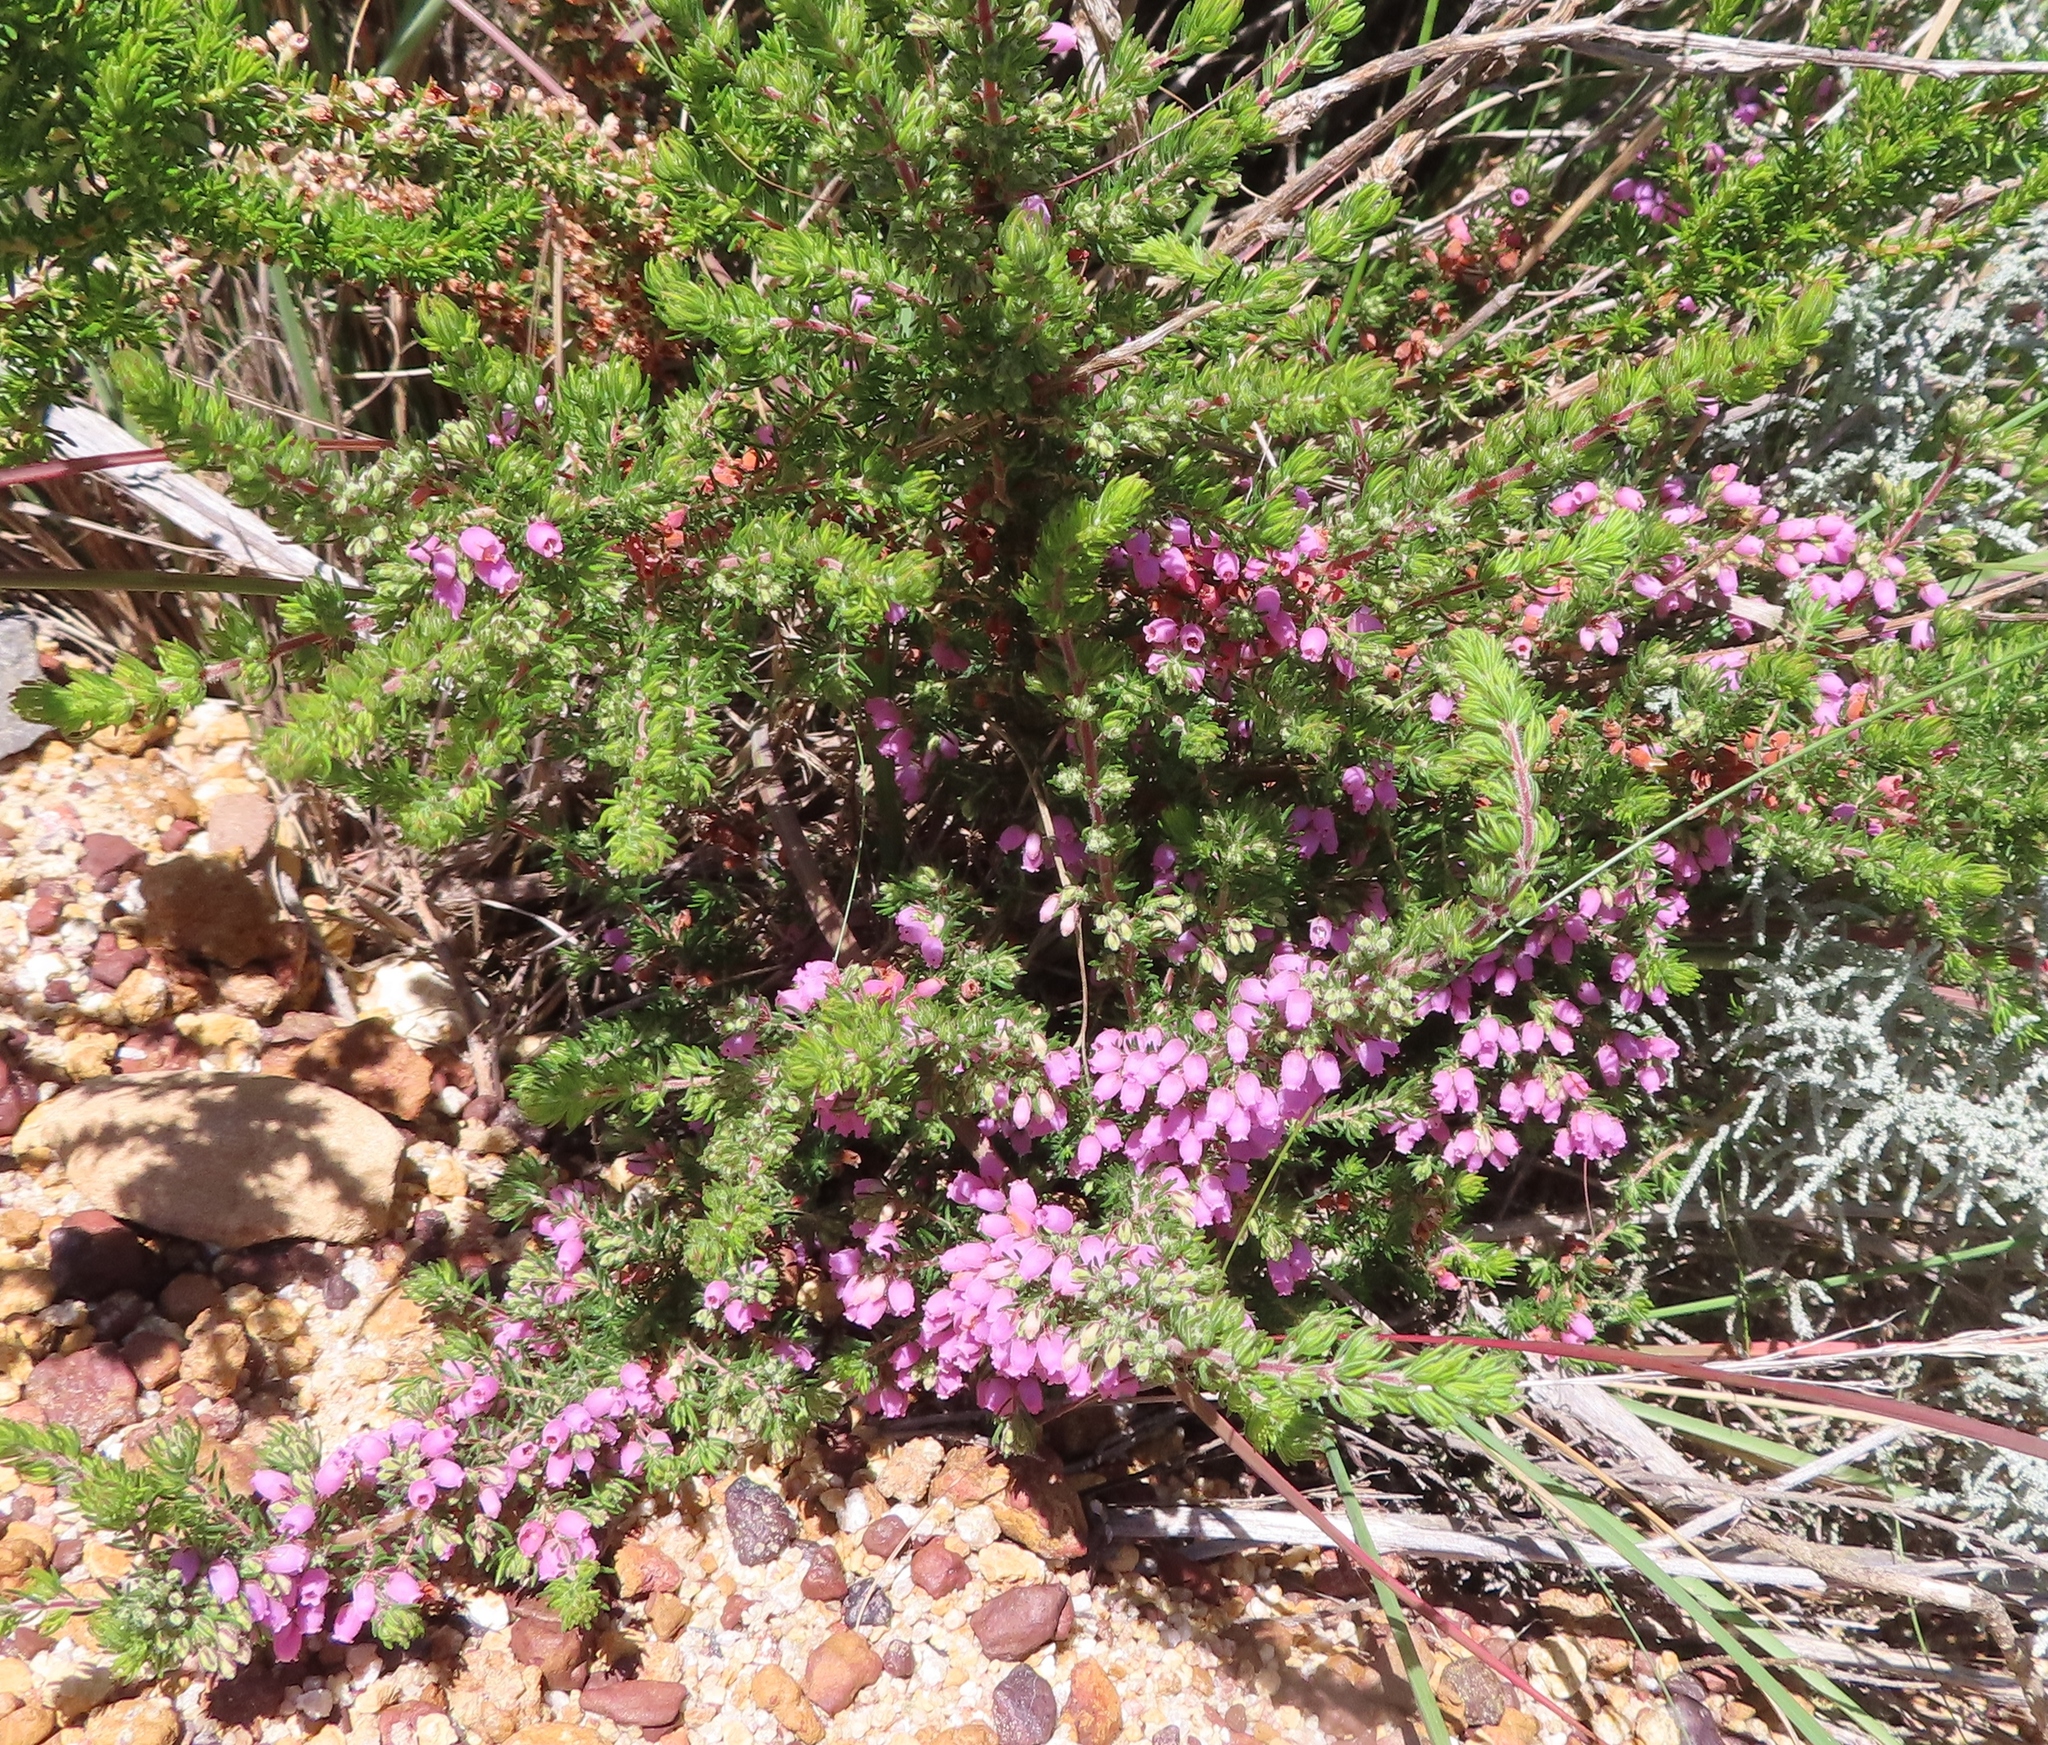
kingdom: Plantae
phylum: Tracheophyta
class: Magnoliopsida
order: Ericales
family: Ericaceae
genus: Erica
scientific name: Erica hirtiflora
